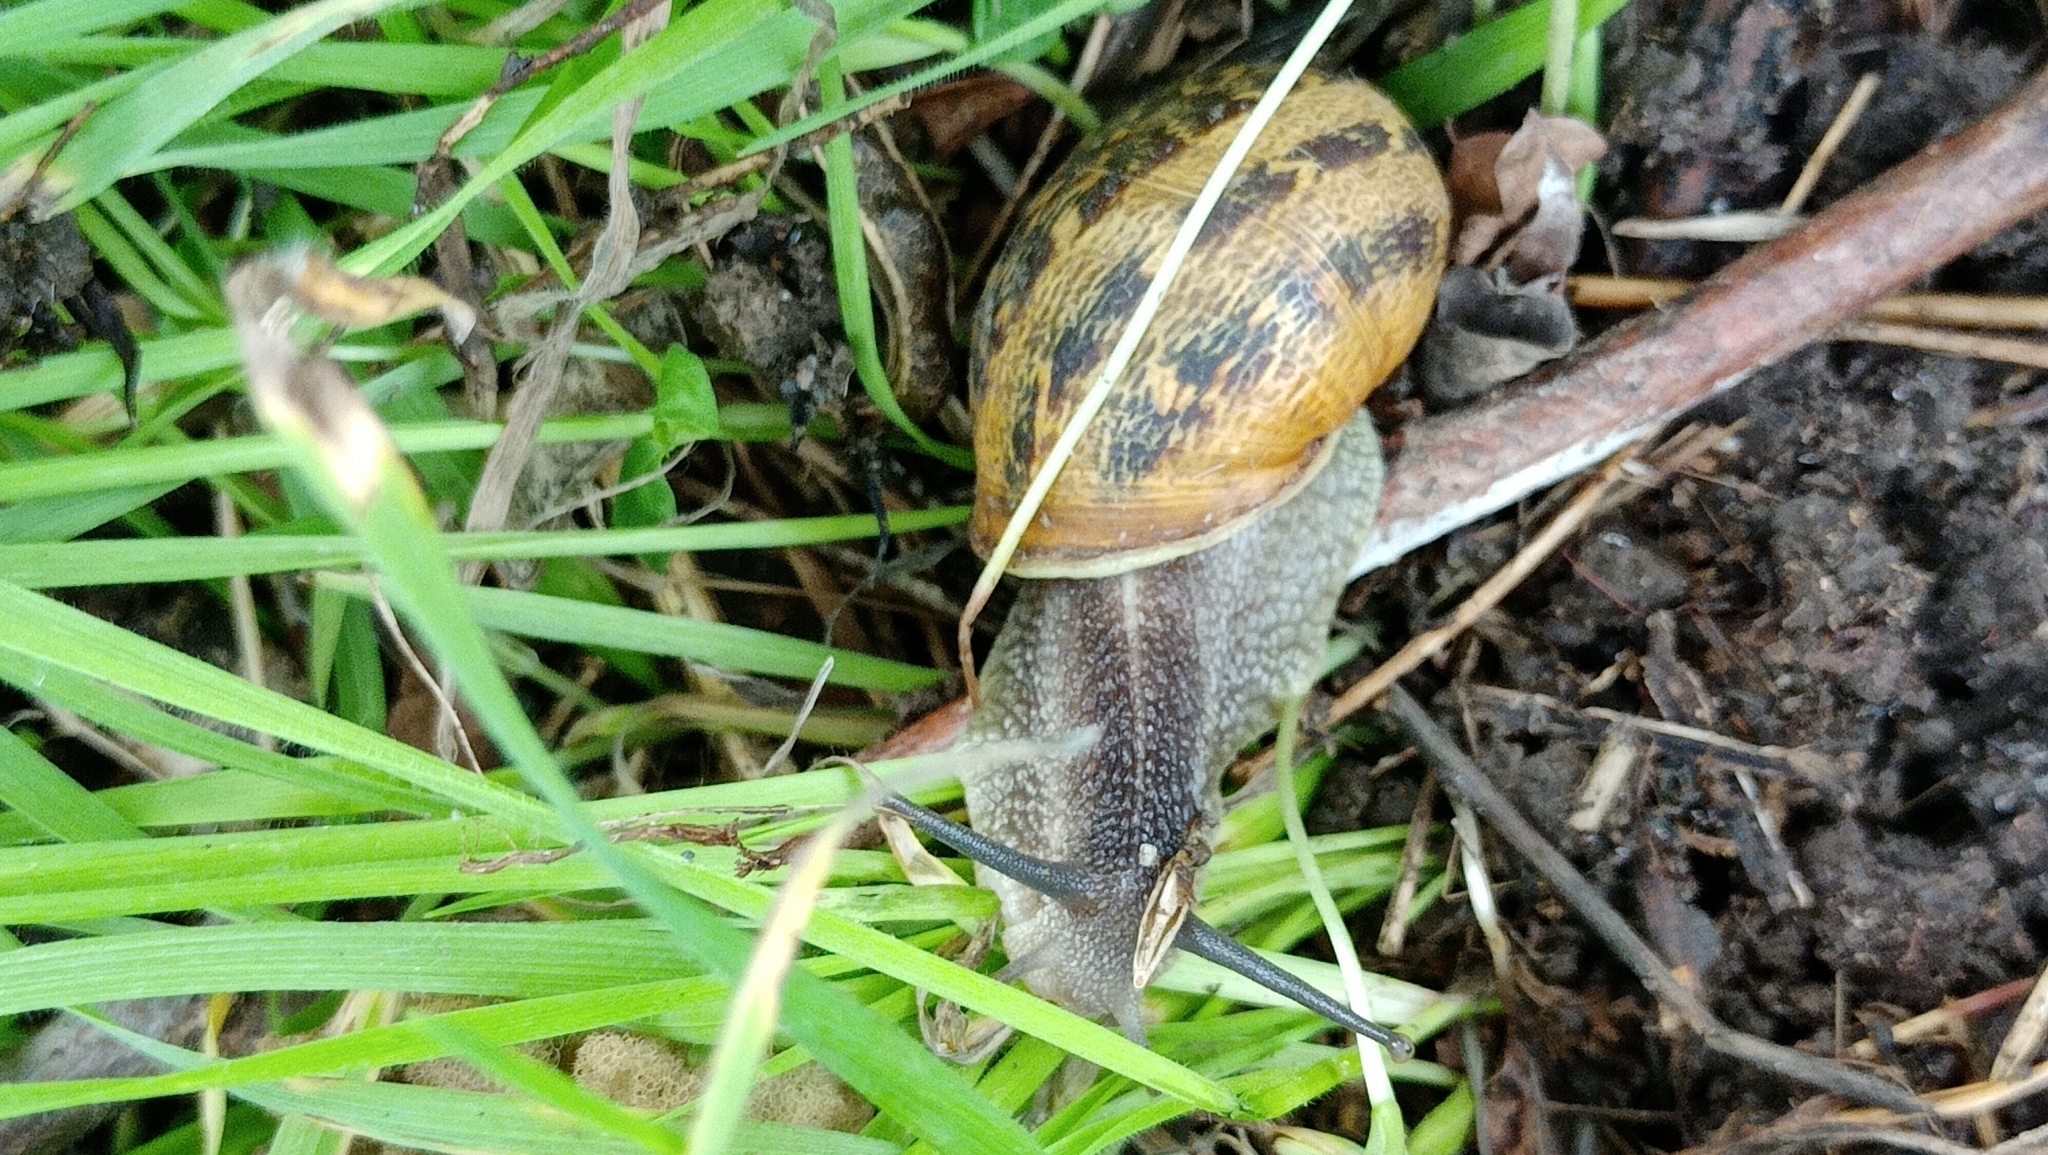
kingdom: Animalia
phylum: Mollusca
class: Gastropoda
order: Stylommatophora
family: Helicidae
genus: Cornu
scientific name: Cornu aspersum
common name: Brown garden snail
